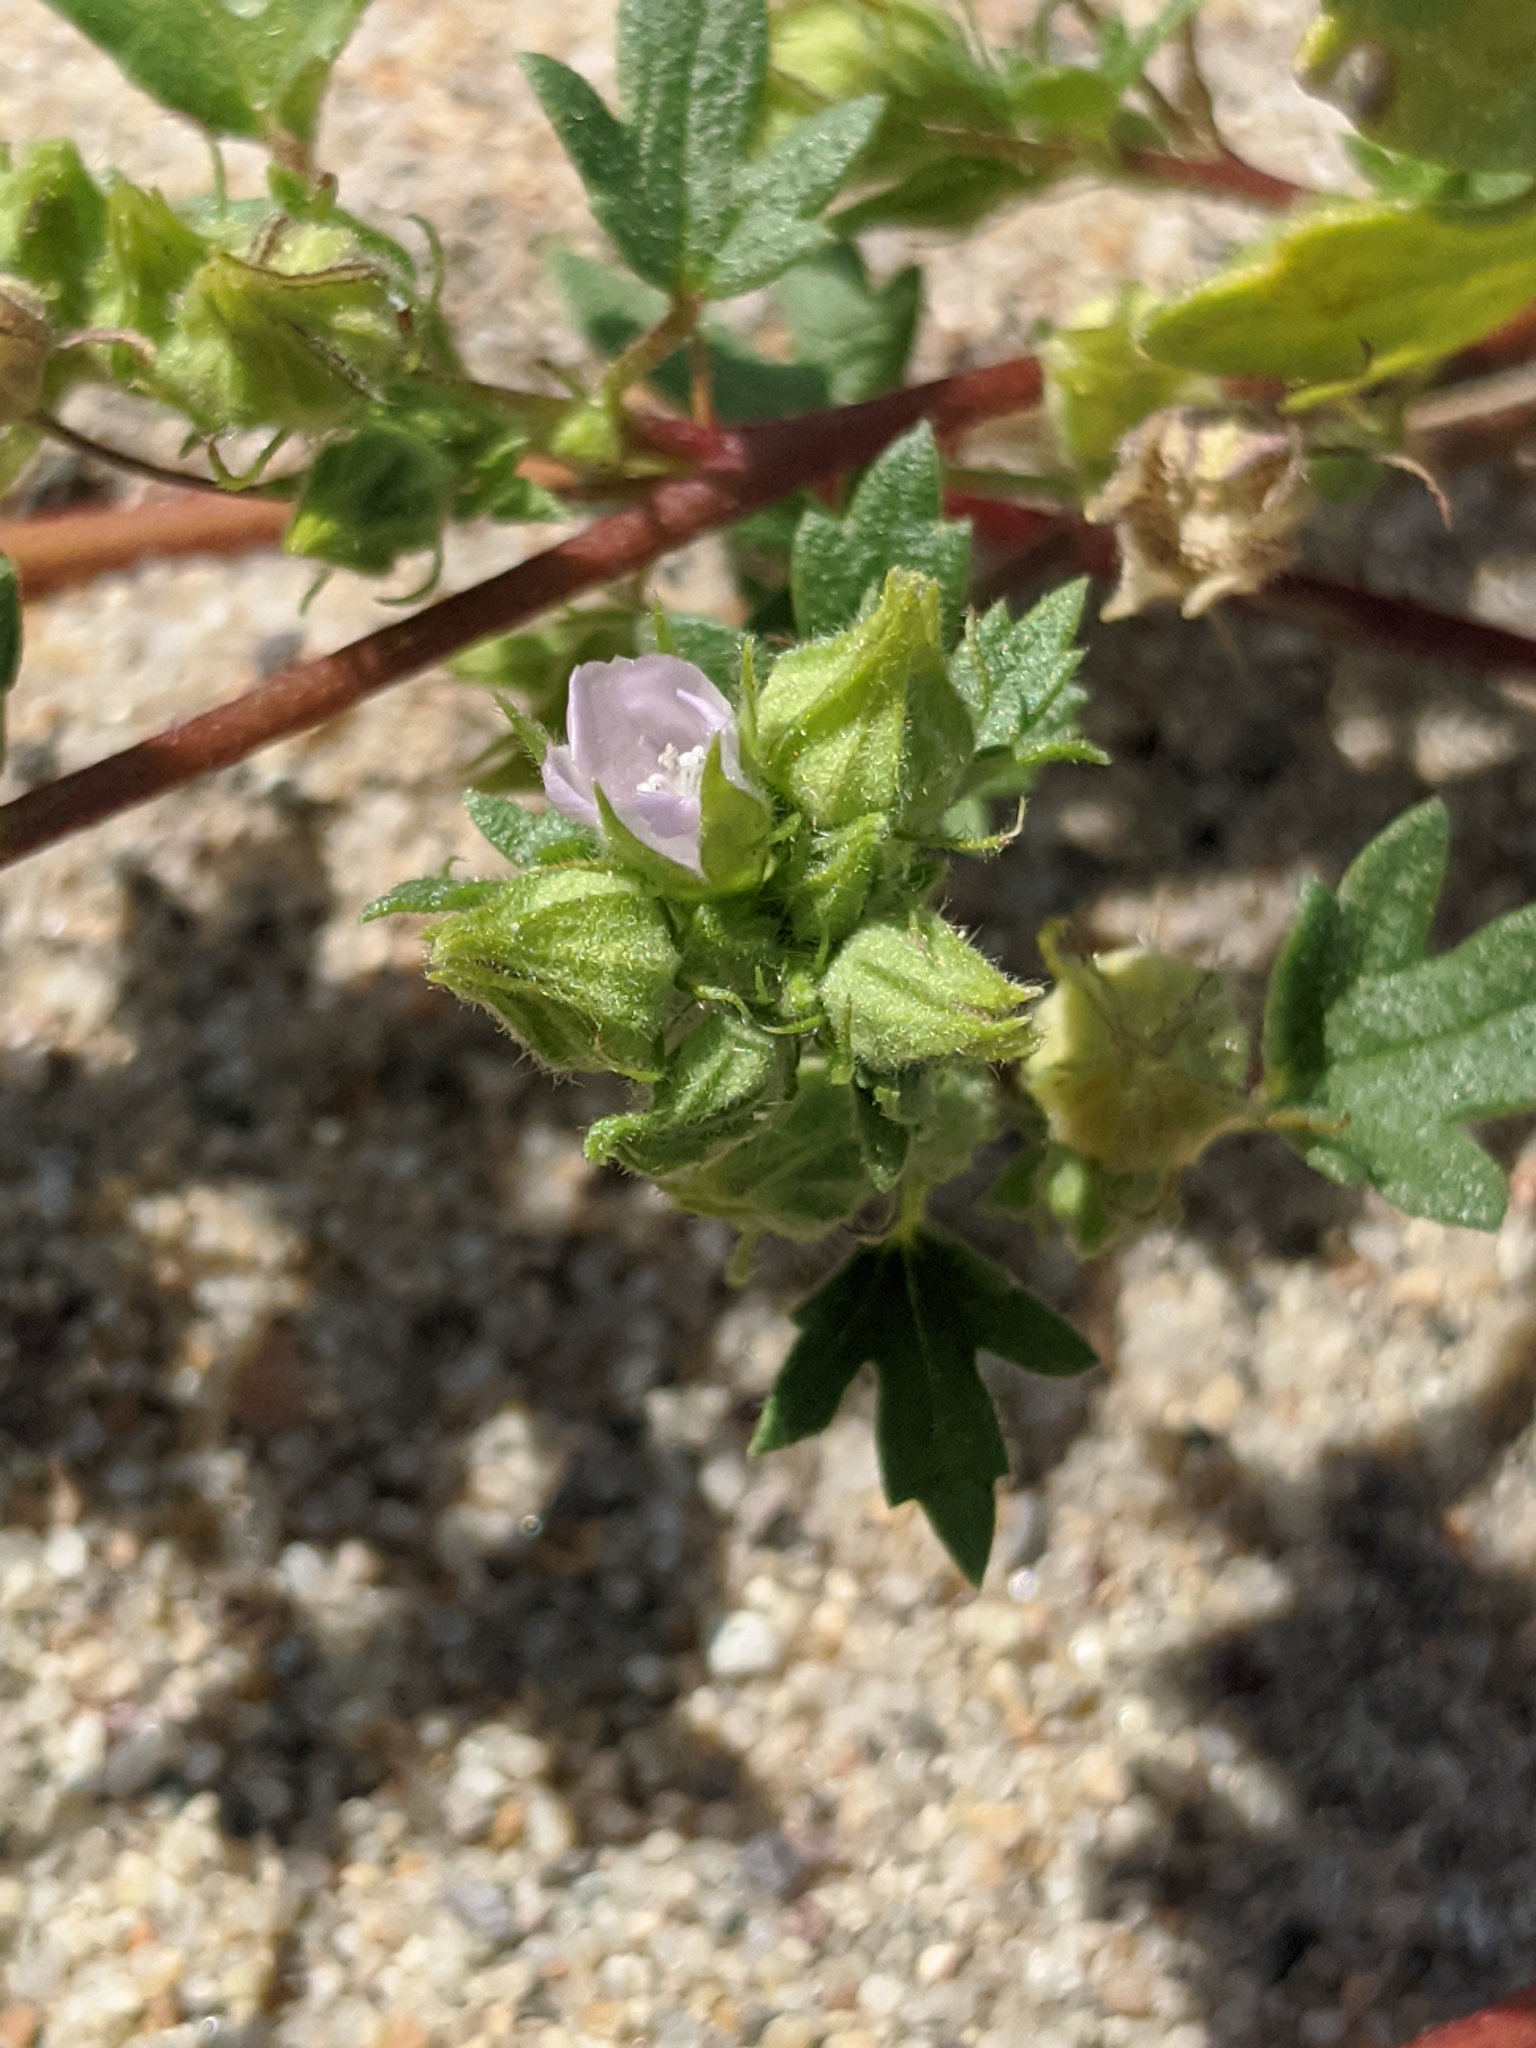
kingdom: Plantae
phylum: Tracheophyta
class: Magnoliopsida
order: Malvales
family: Malvaceae
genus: Eremalche
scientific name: Eremalche exilis
